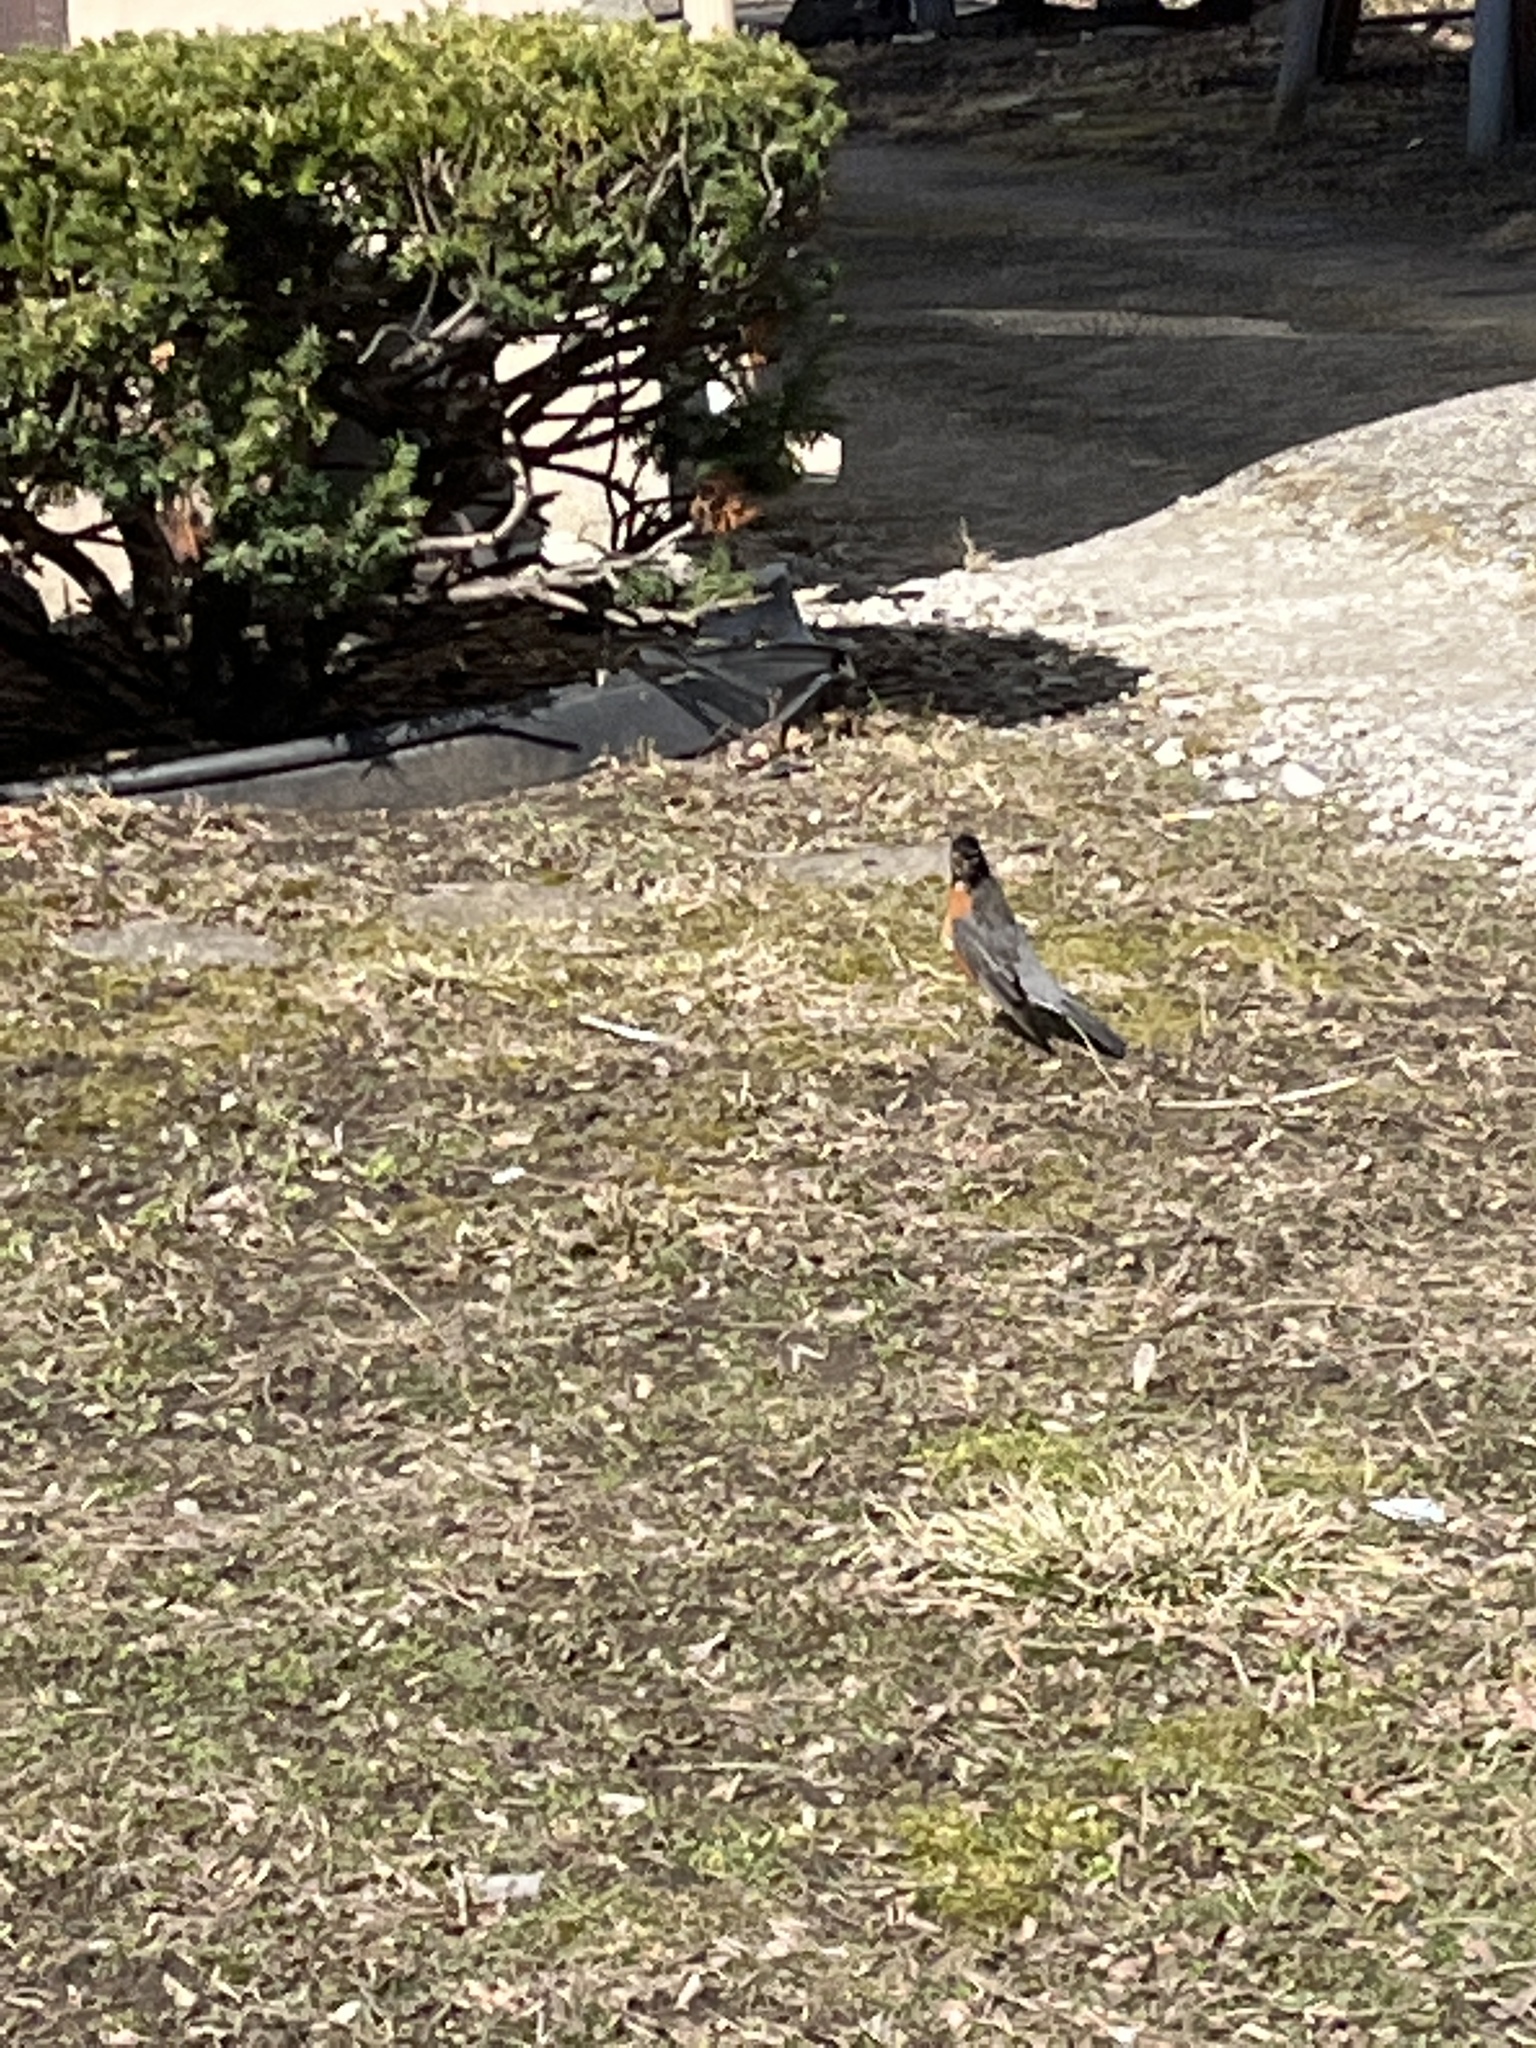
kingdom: Animalia
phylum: Chordata
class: Aves
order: Passeriformes
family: Turdidae
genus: Turdus
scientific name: Turdus migratorius
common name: American robin
